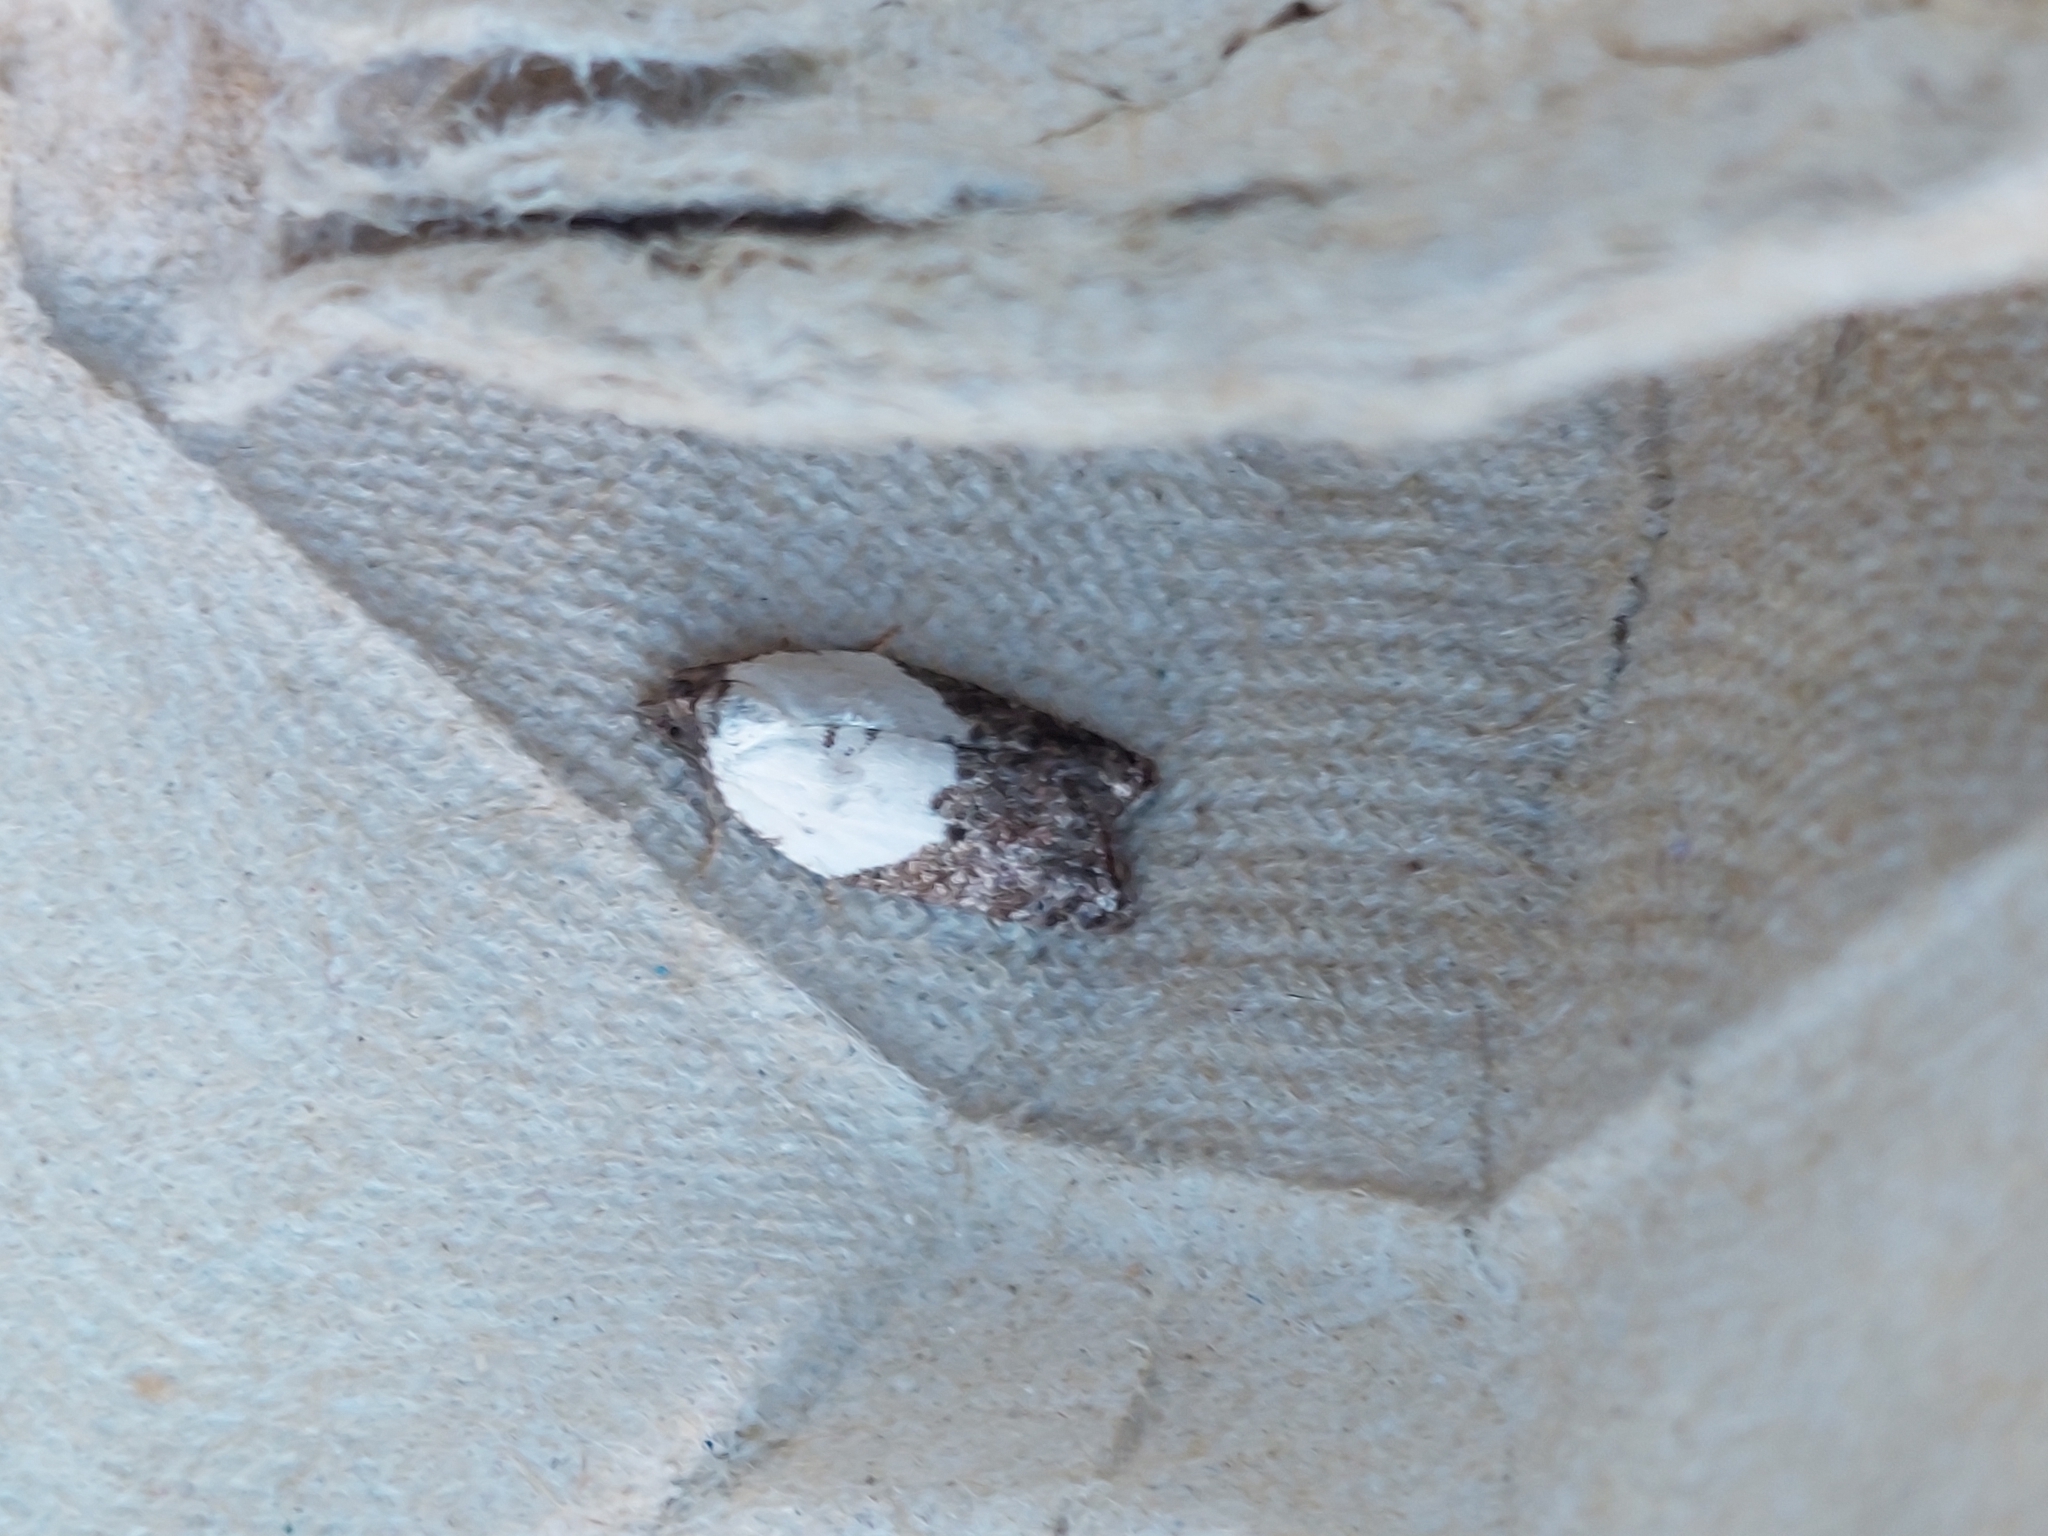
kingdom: Animalia
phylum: Arthropoda
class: Insecta
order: Lepidoptera
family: Tortricidae
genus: Acleris
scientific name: Acleris variegana
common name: Garden rose tortrix
